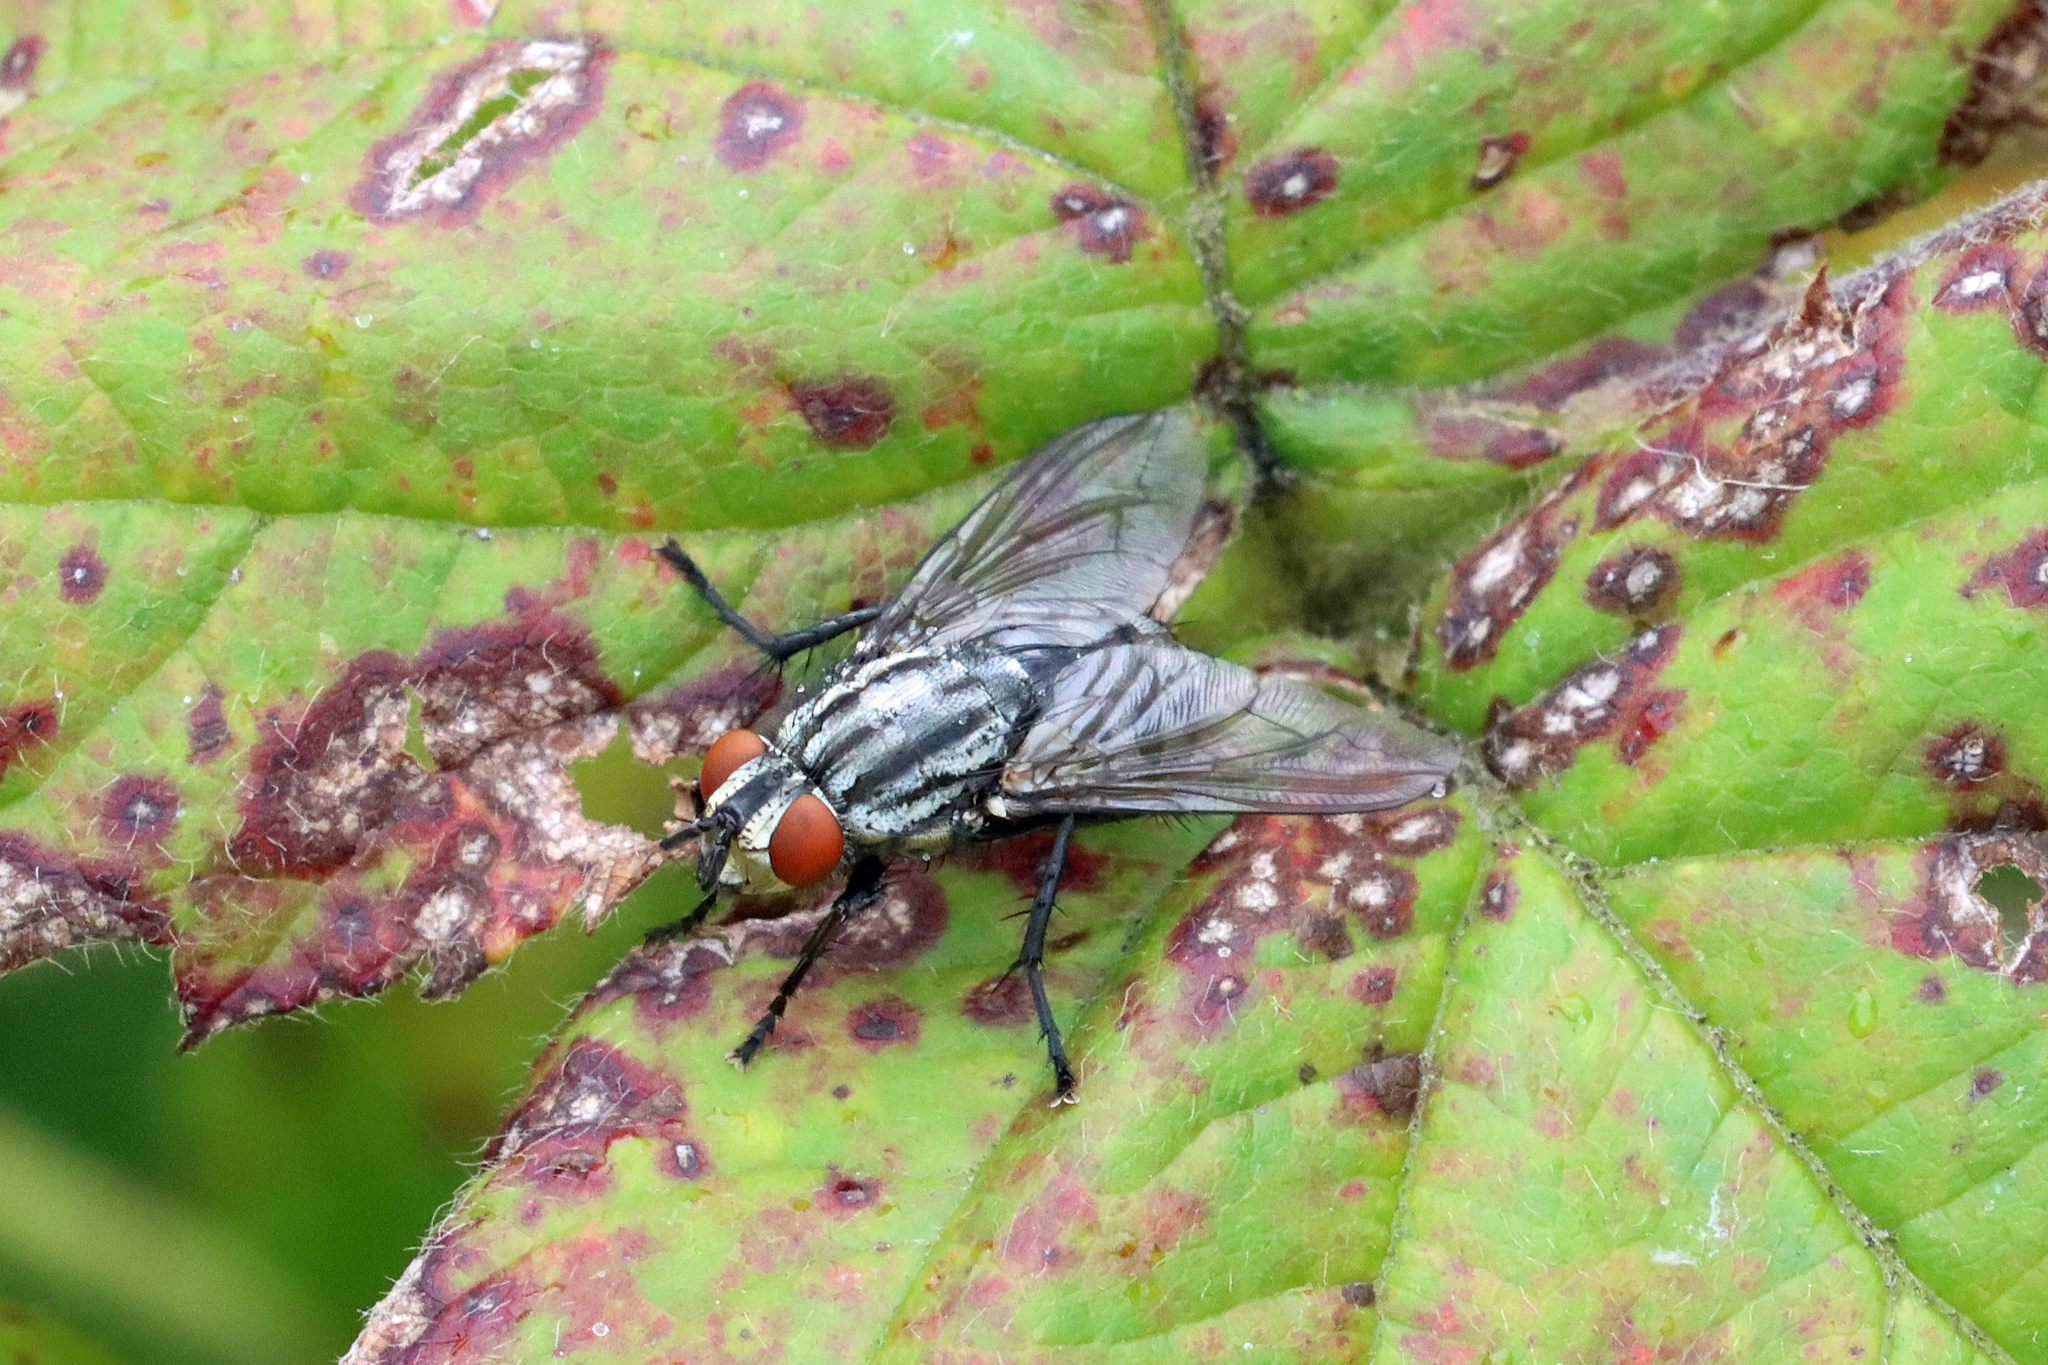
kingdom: Animalia
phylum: Arthropoda
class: Insecta
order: Diptera
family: Sarcophagidae
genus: Sarcophaga
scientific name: Sarcophaga
